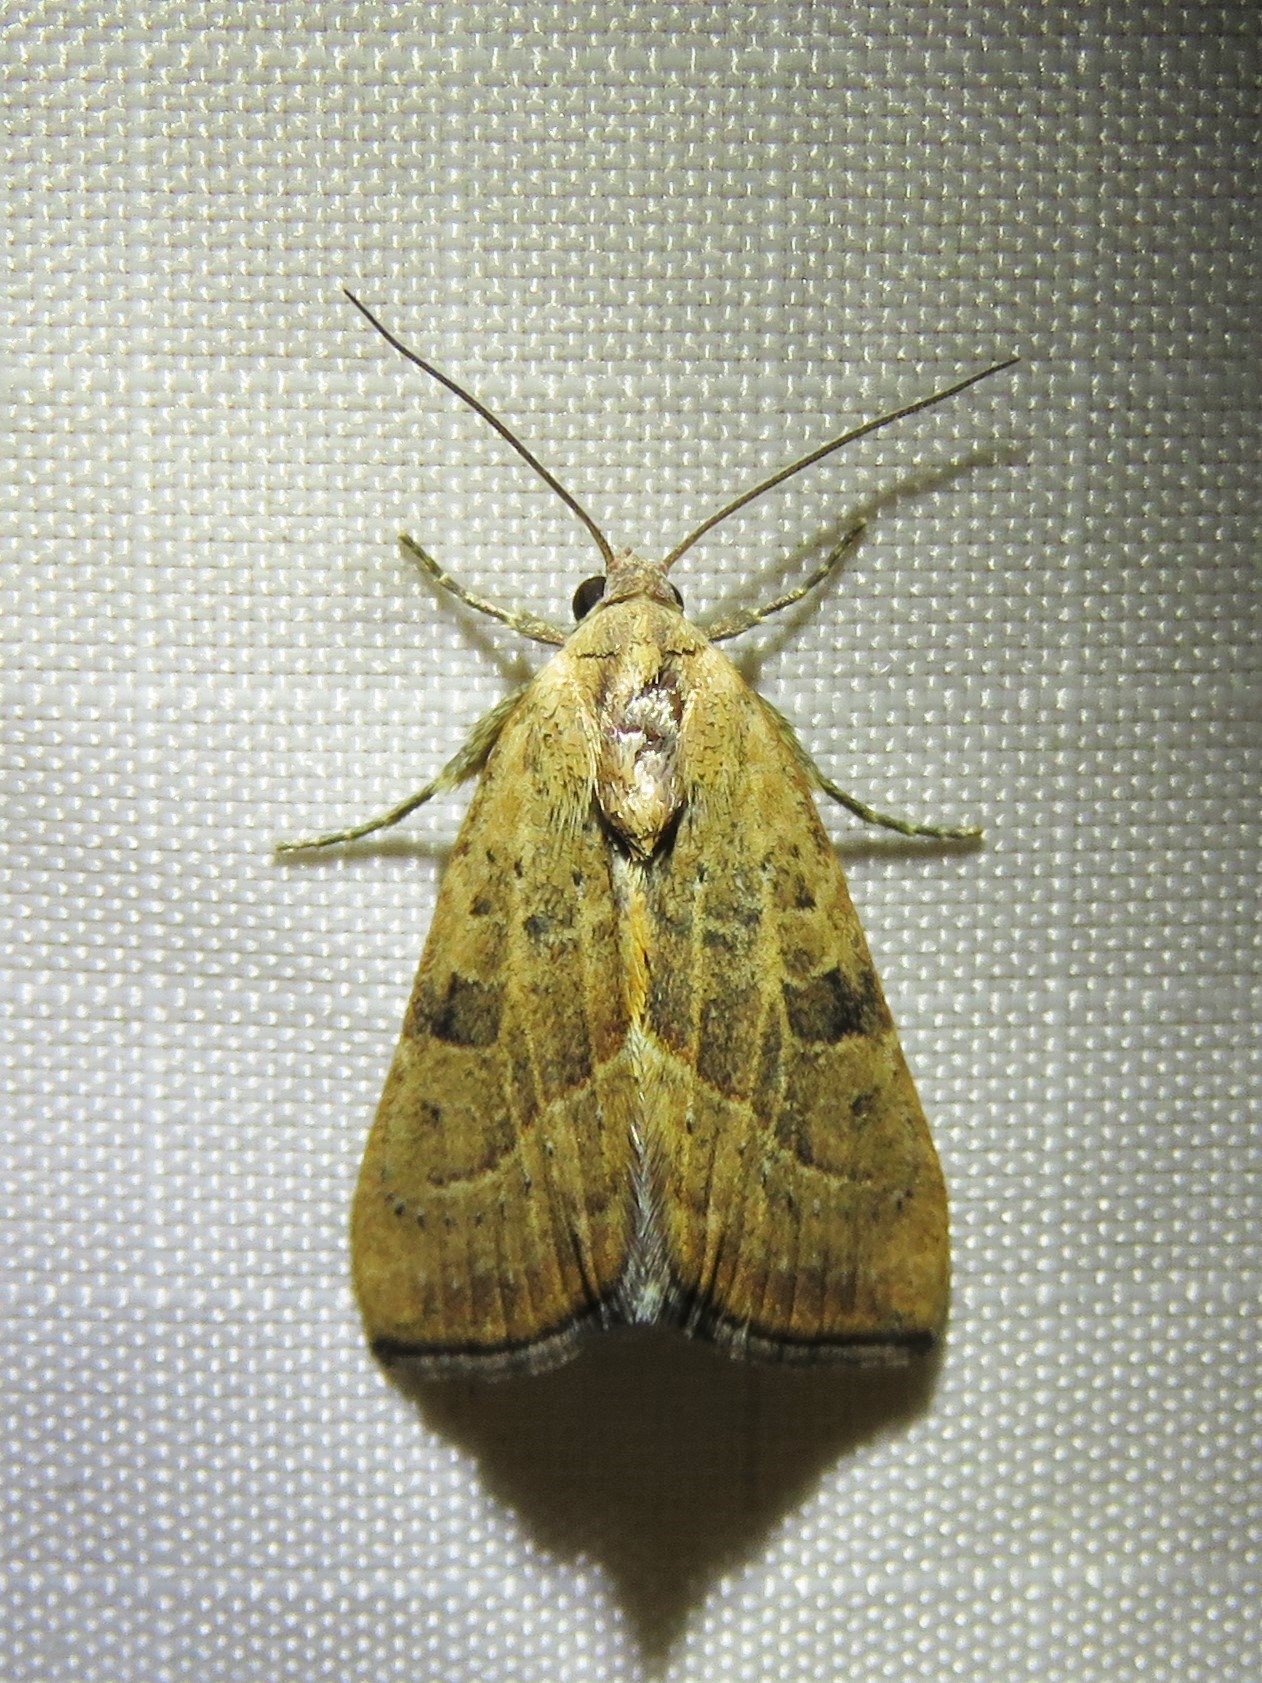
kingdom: Animalia
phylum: Arthropoda
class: Insecta
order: Lepidoptera
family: Noctuidae
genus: Galgula
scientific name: Galgula partita
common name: Wedgeling
